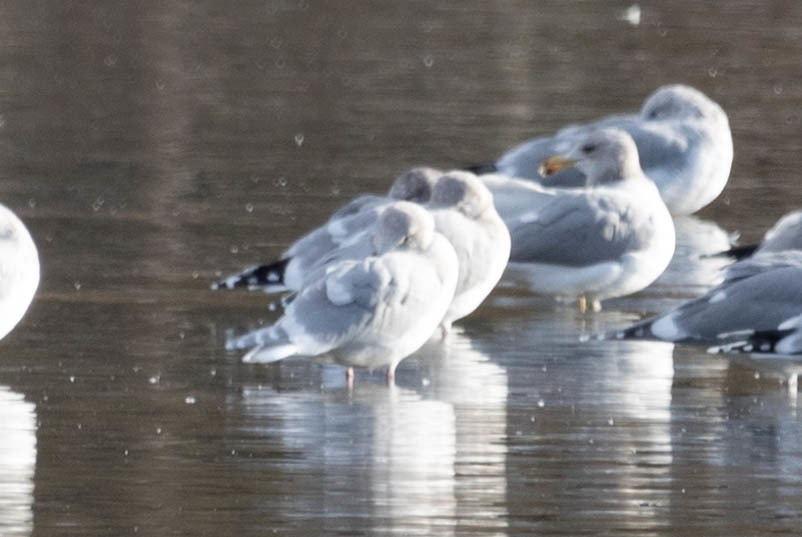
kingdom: Animalia
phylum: Chordata
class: Aves
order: Charadriiformes
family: Laridae
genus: Larus
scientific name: Larus glaucescens
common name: Glaucous-winged gull
